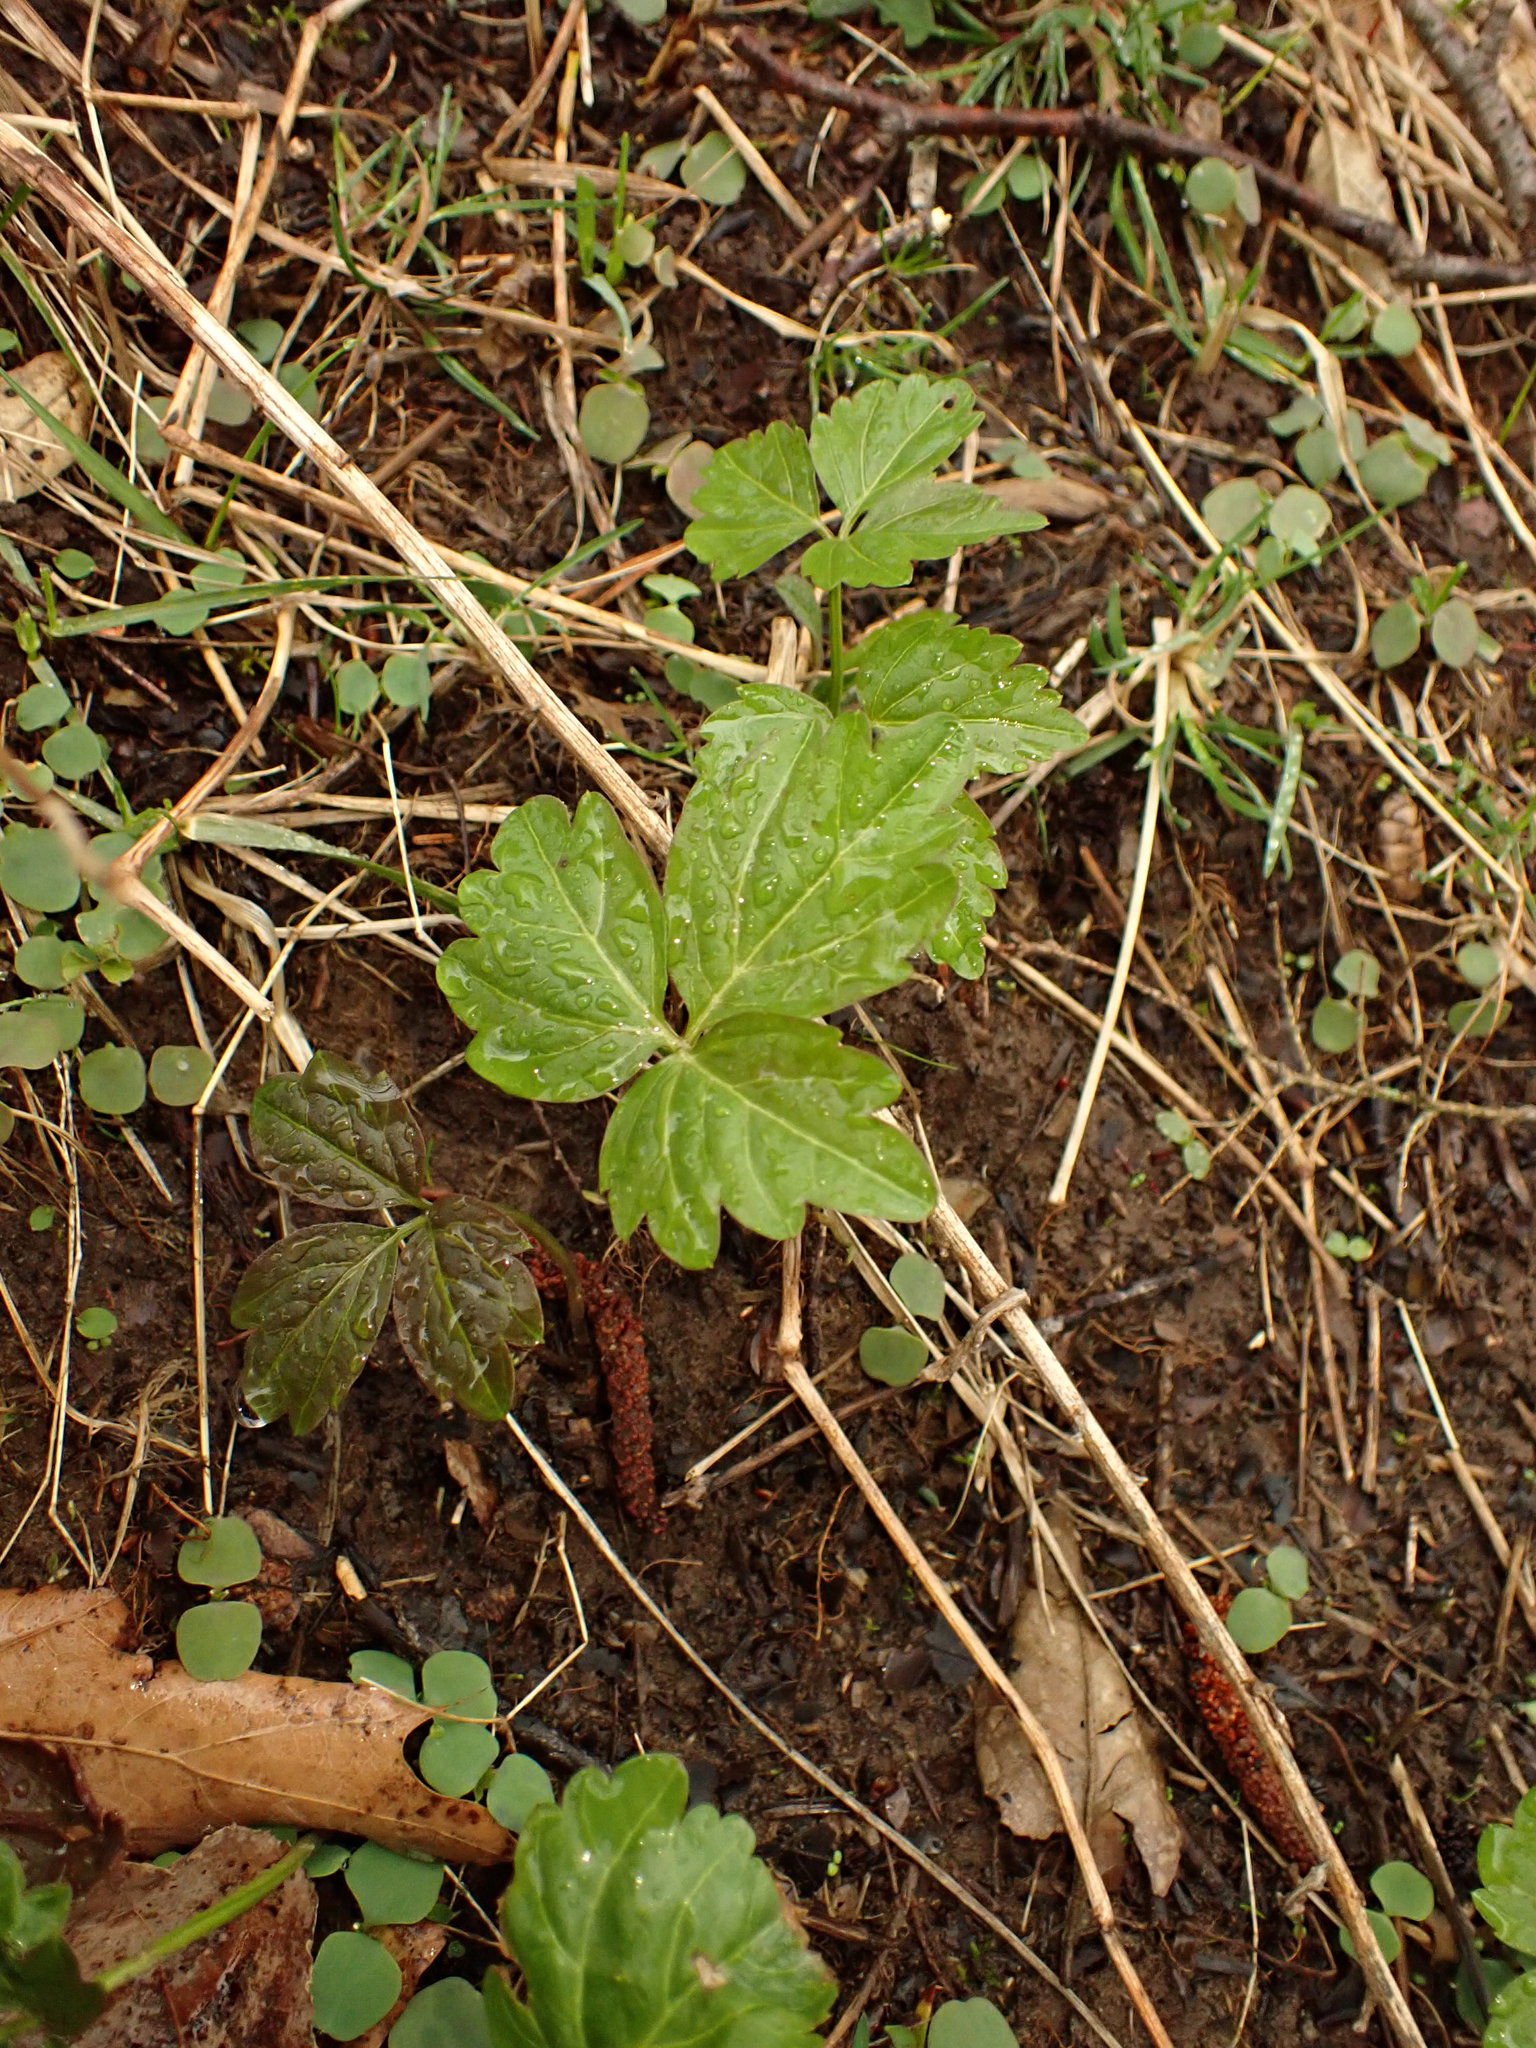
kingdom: Plantae
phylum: Tracheophyta
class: Magnoliopsida
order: Brassicales
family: Brassicaceae
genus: Cardamine
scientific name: Cardamine diphylla
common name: Broad-leaved toothwort
